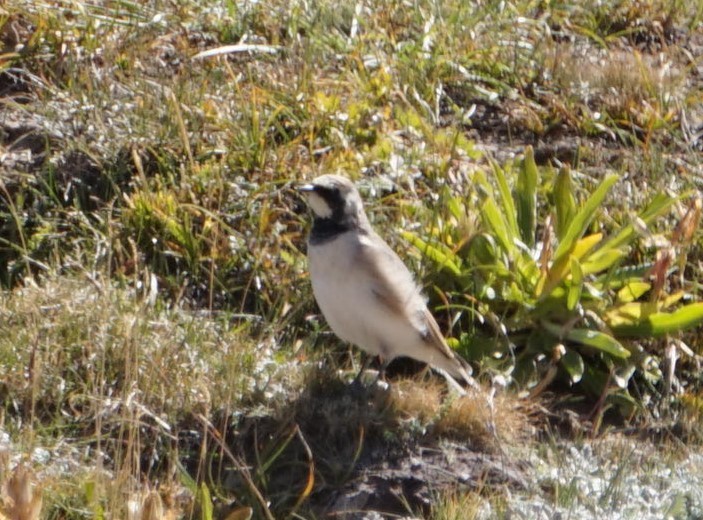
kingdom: Animalia
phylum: Chordata
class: Aves
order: Passeriformes
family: Alaudidae
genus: Eremophila
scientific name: Eremophila alpestris
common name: Horned lark
